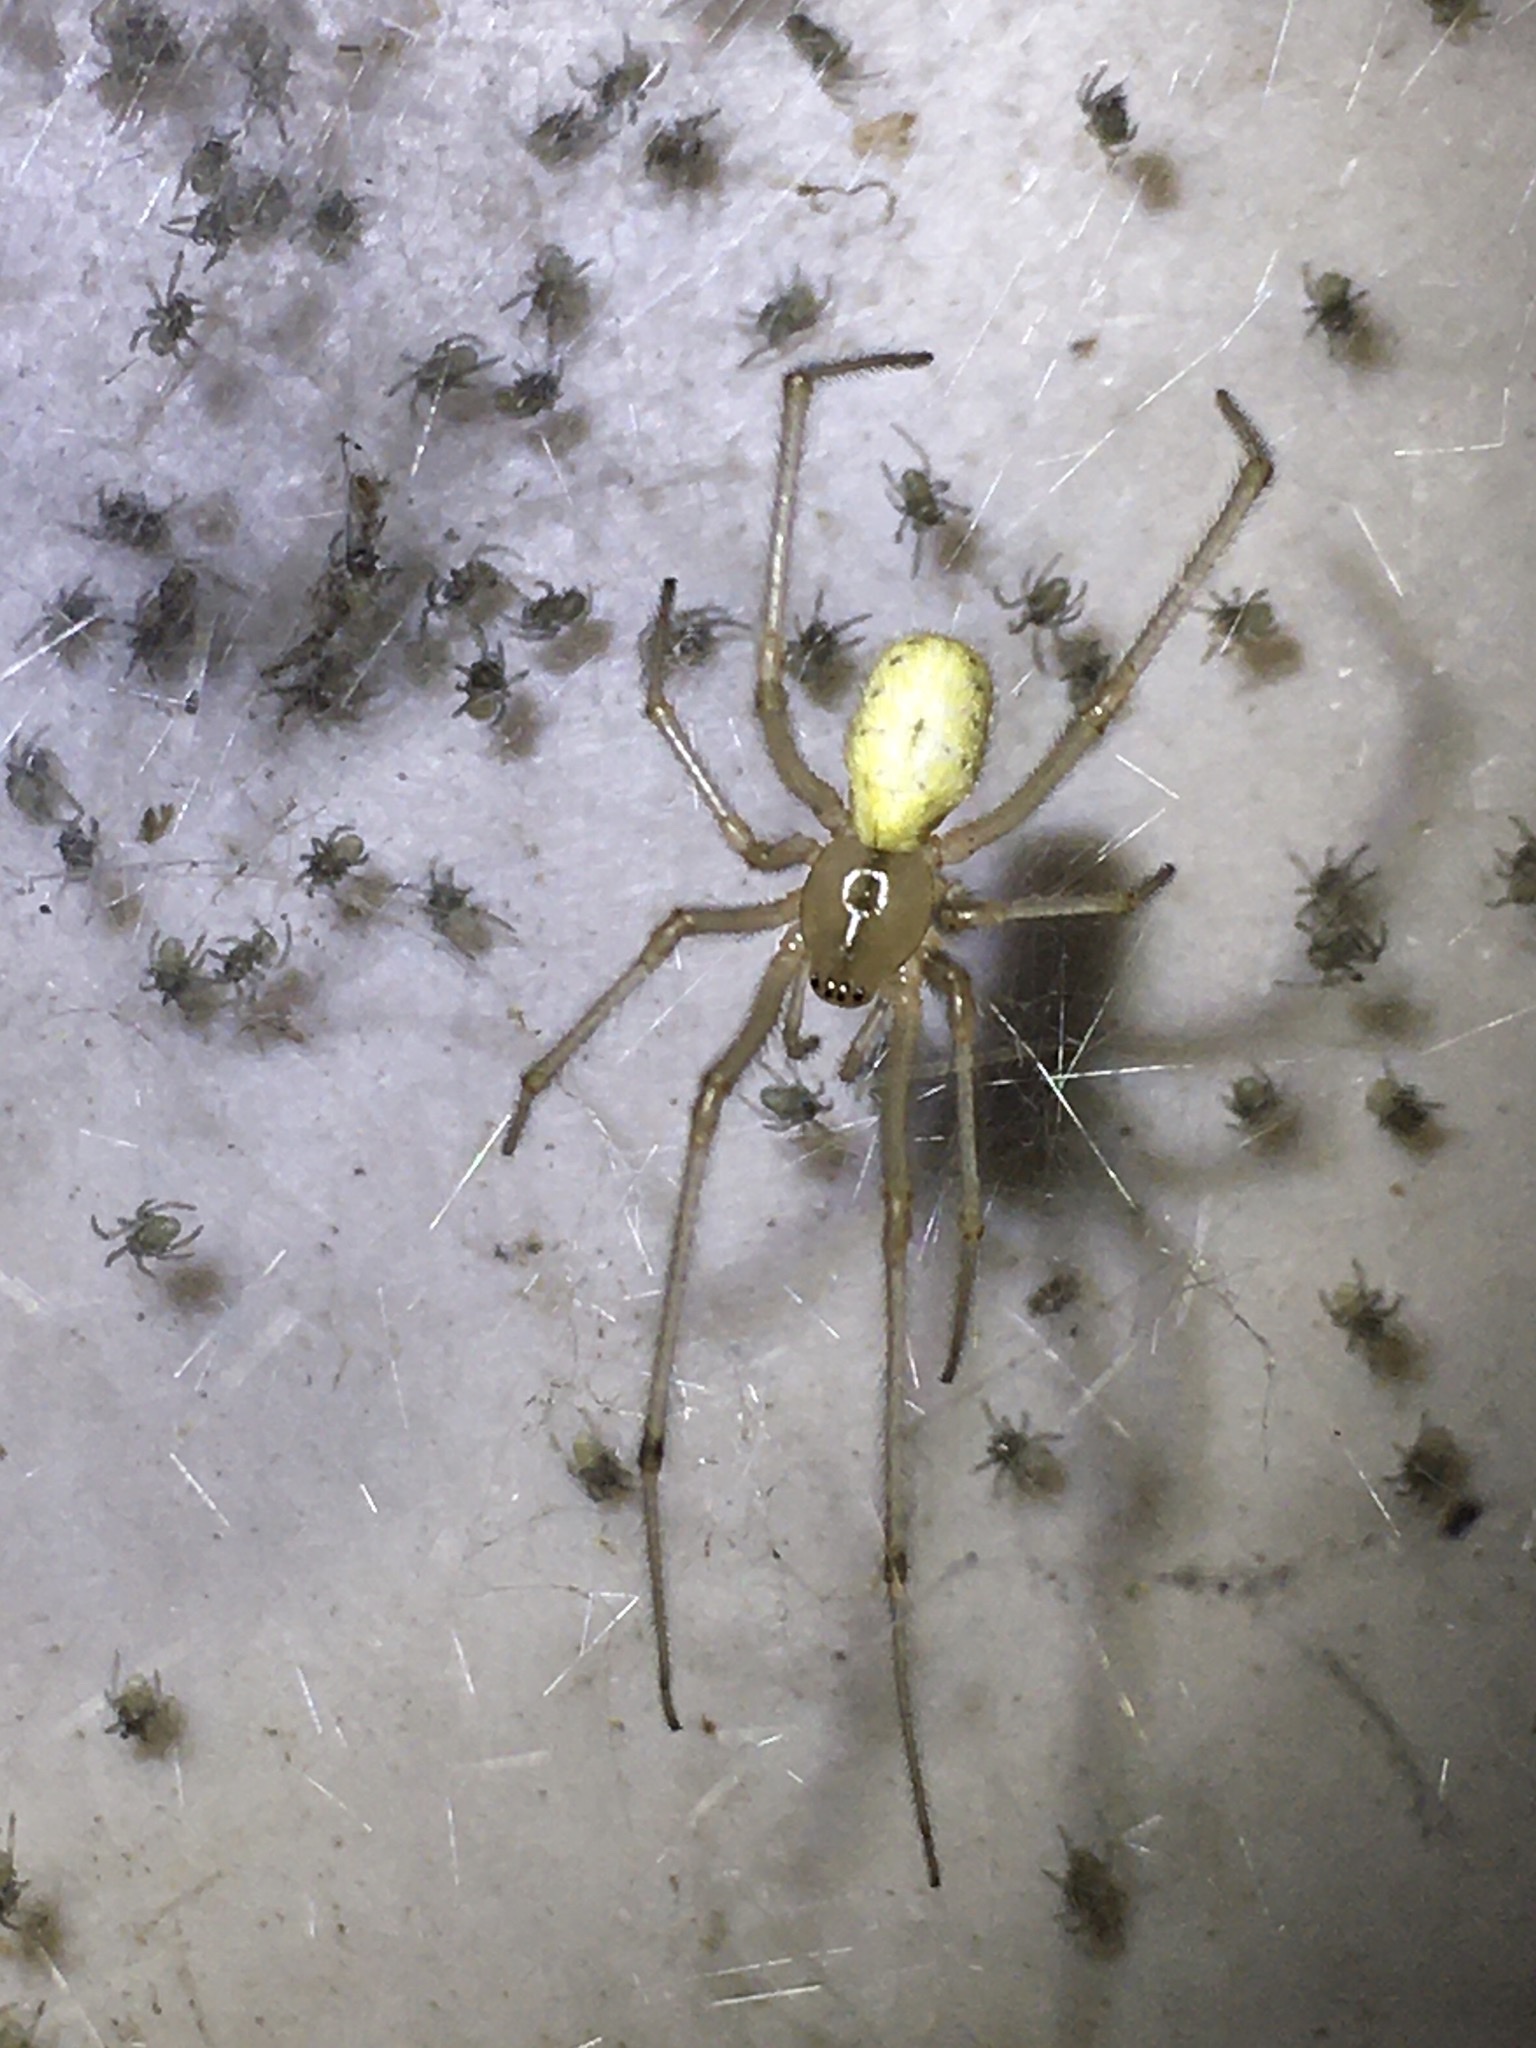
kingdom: Animalia
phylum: Arthropoda
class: Arachnida
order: Araneae
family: Theridiidae
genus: Enoplognatha
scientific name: Enoplognatha ovata
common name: Common candy-striped spider
